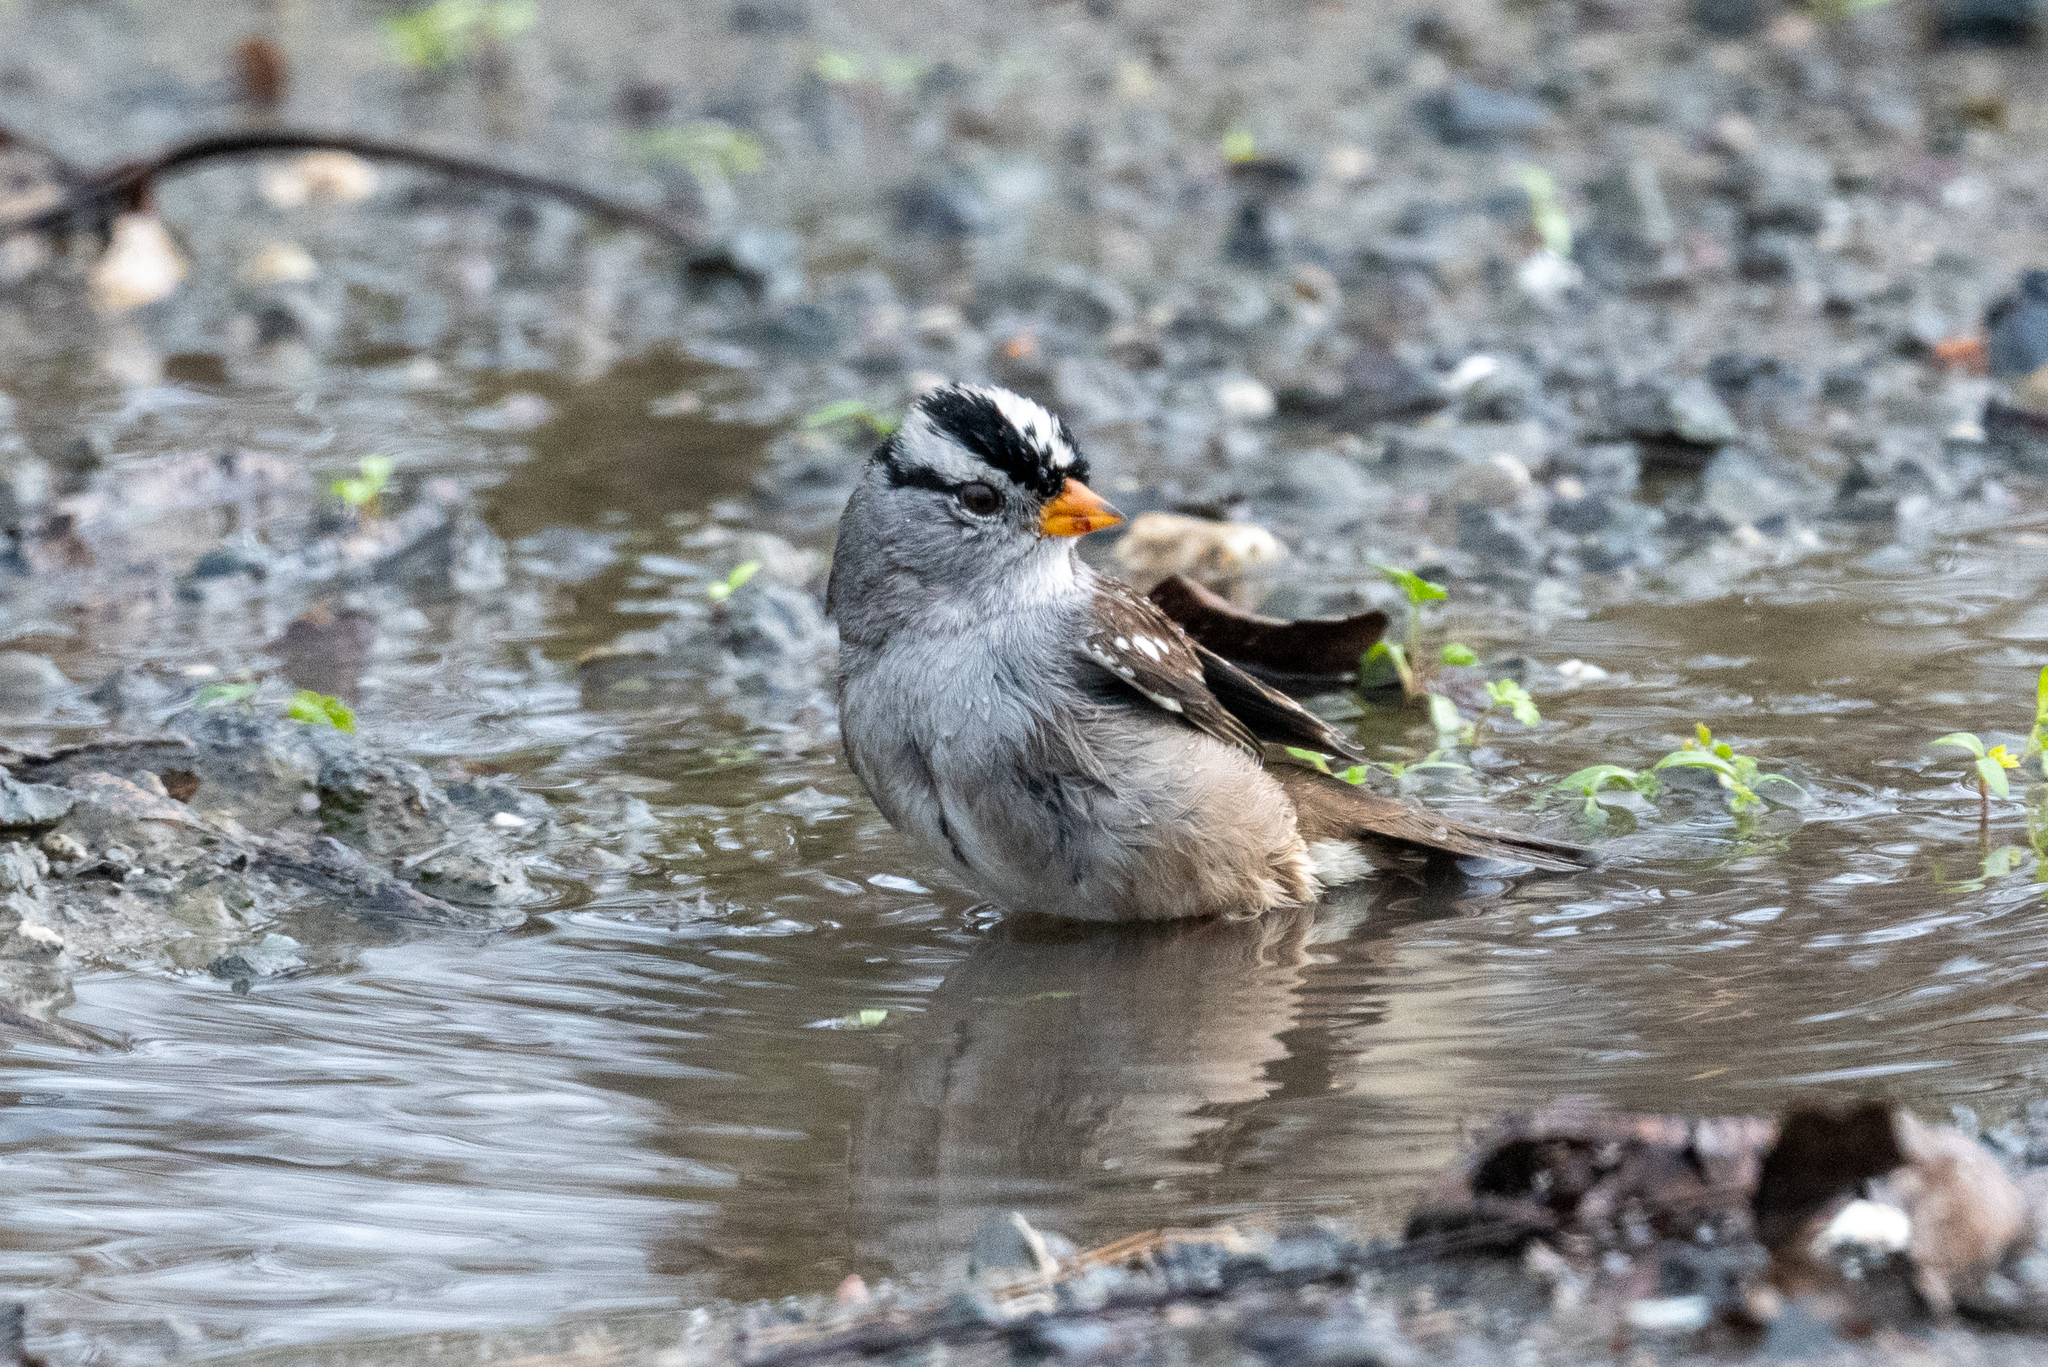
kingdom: Animalia
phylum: Chordata
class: Aves
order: Passeriformes
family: Passerellidae
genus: Zonotrichia
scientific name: Zonotrichia leucophrys
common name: White-crowned sparrow
